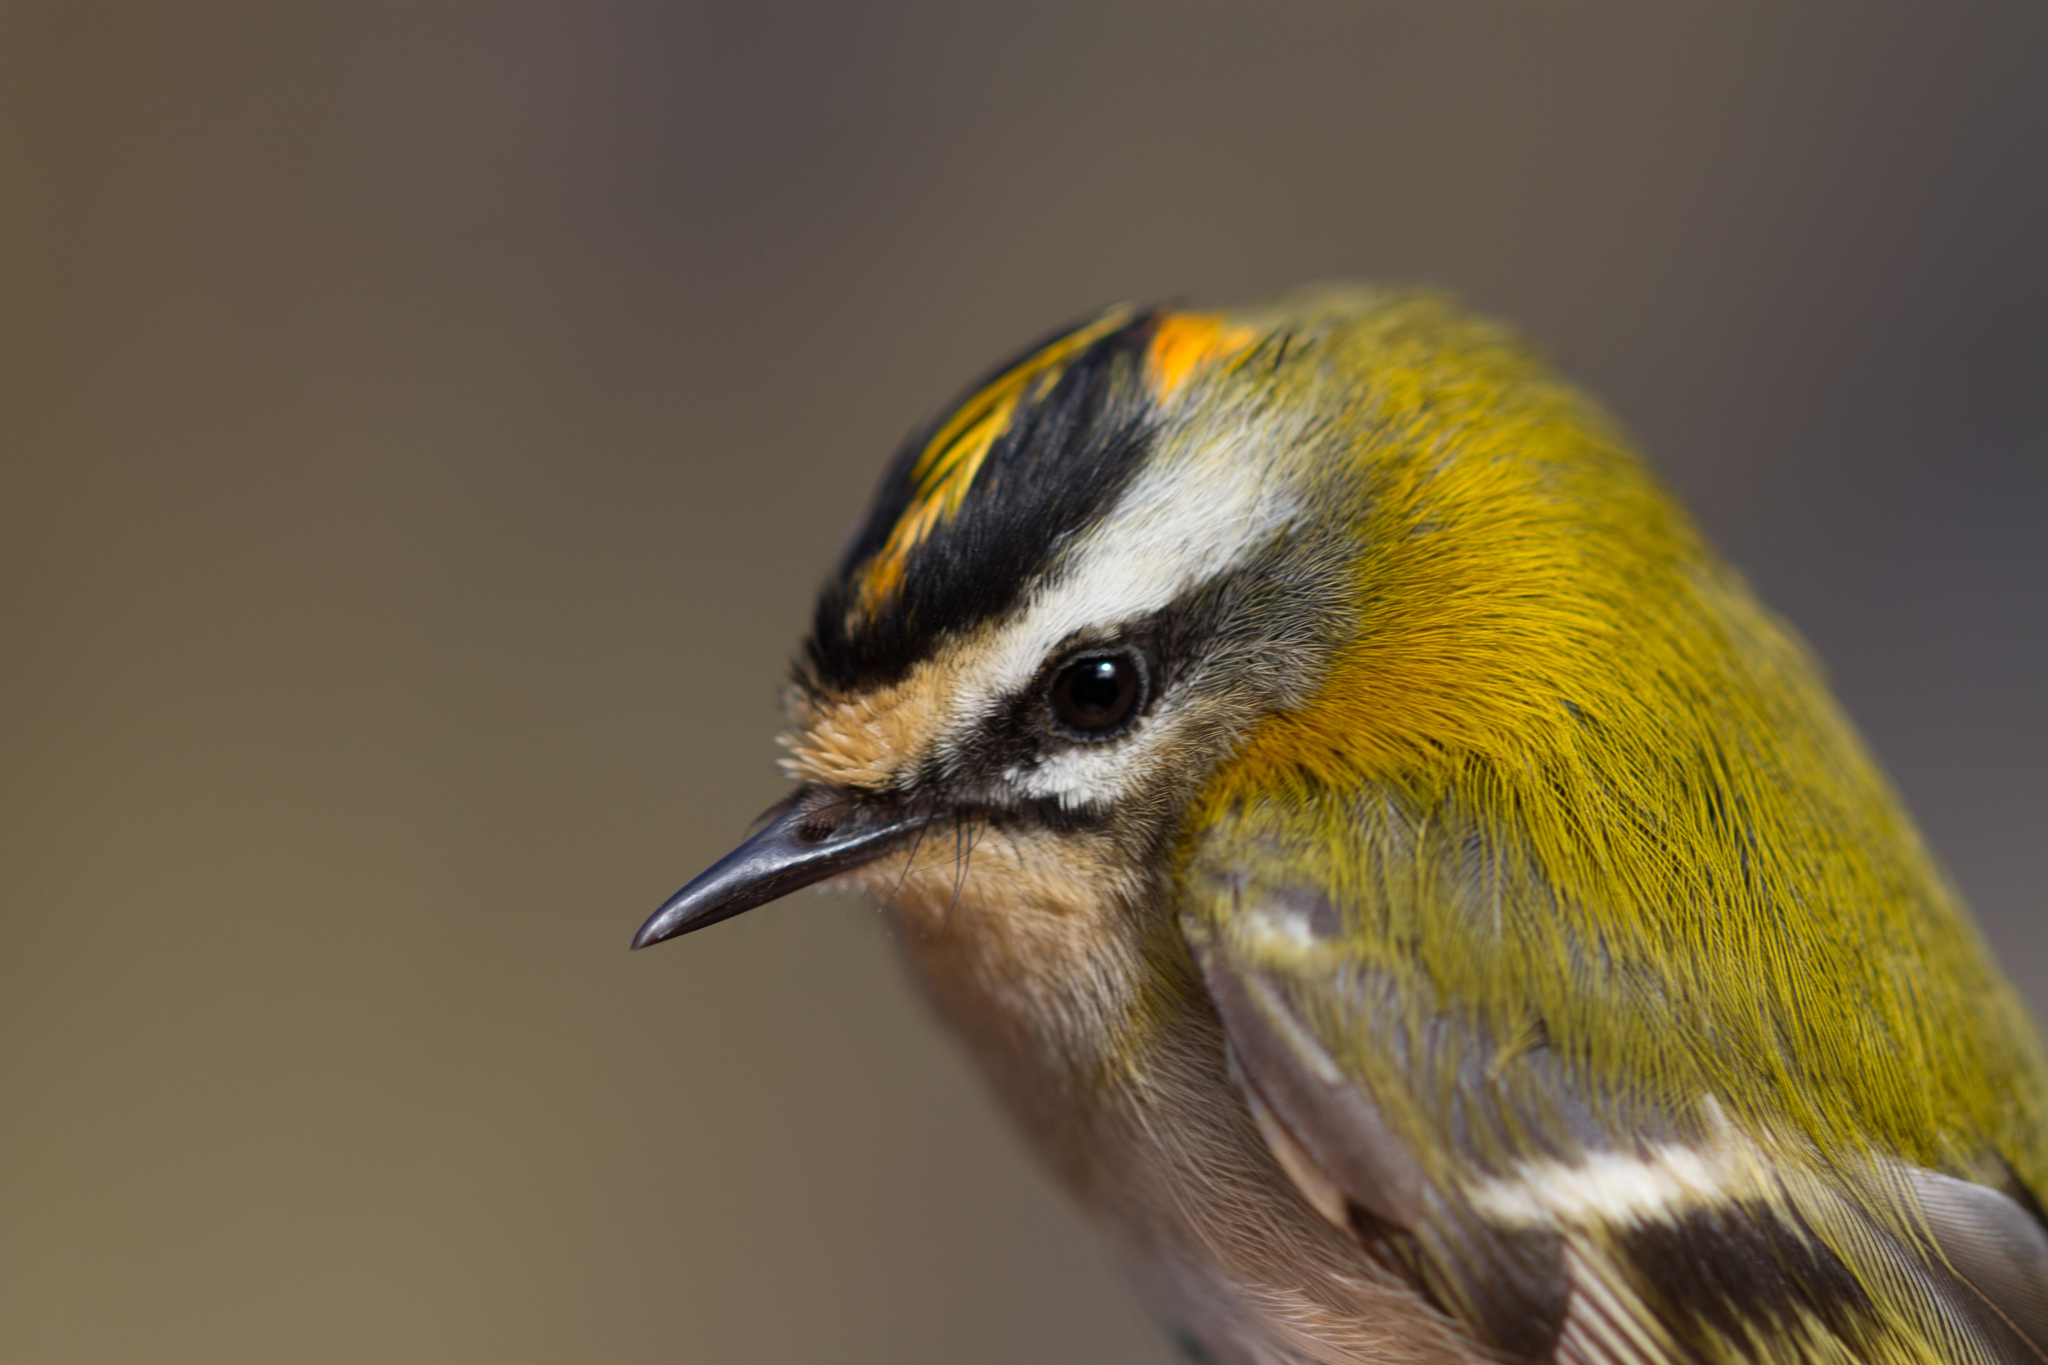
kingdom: Animalia
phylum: Chordata
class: Aves
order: Passeriformes
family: Regulidae
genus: Regulus
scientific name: Regulus ignicapilla
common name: Firecrest
